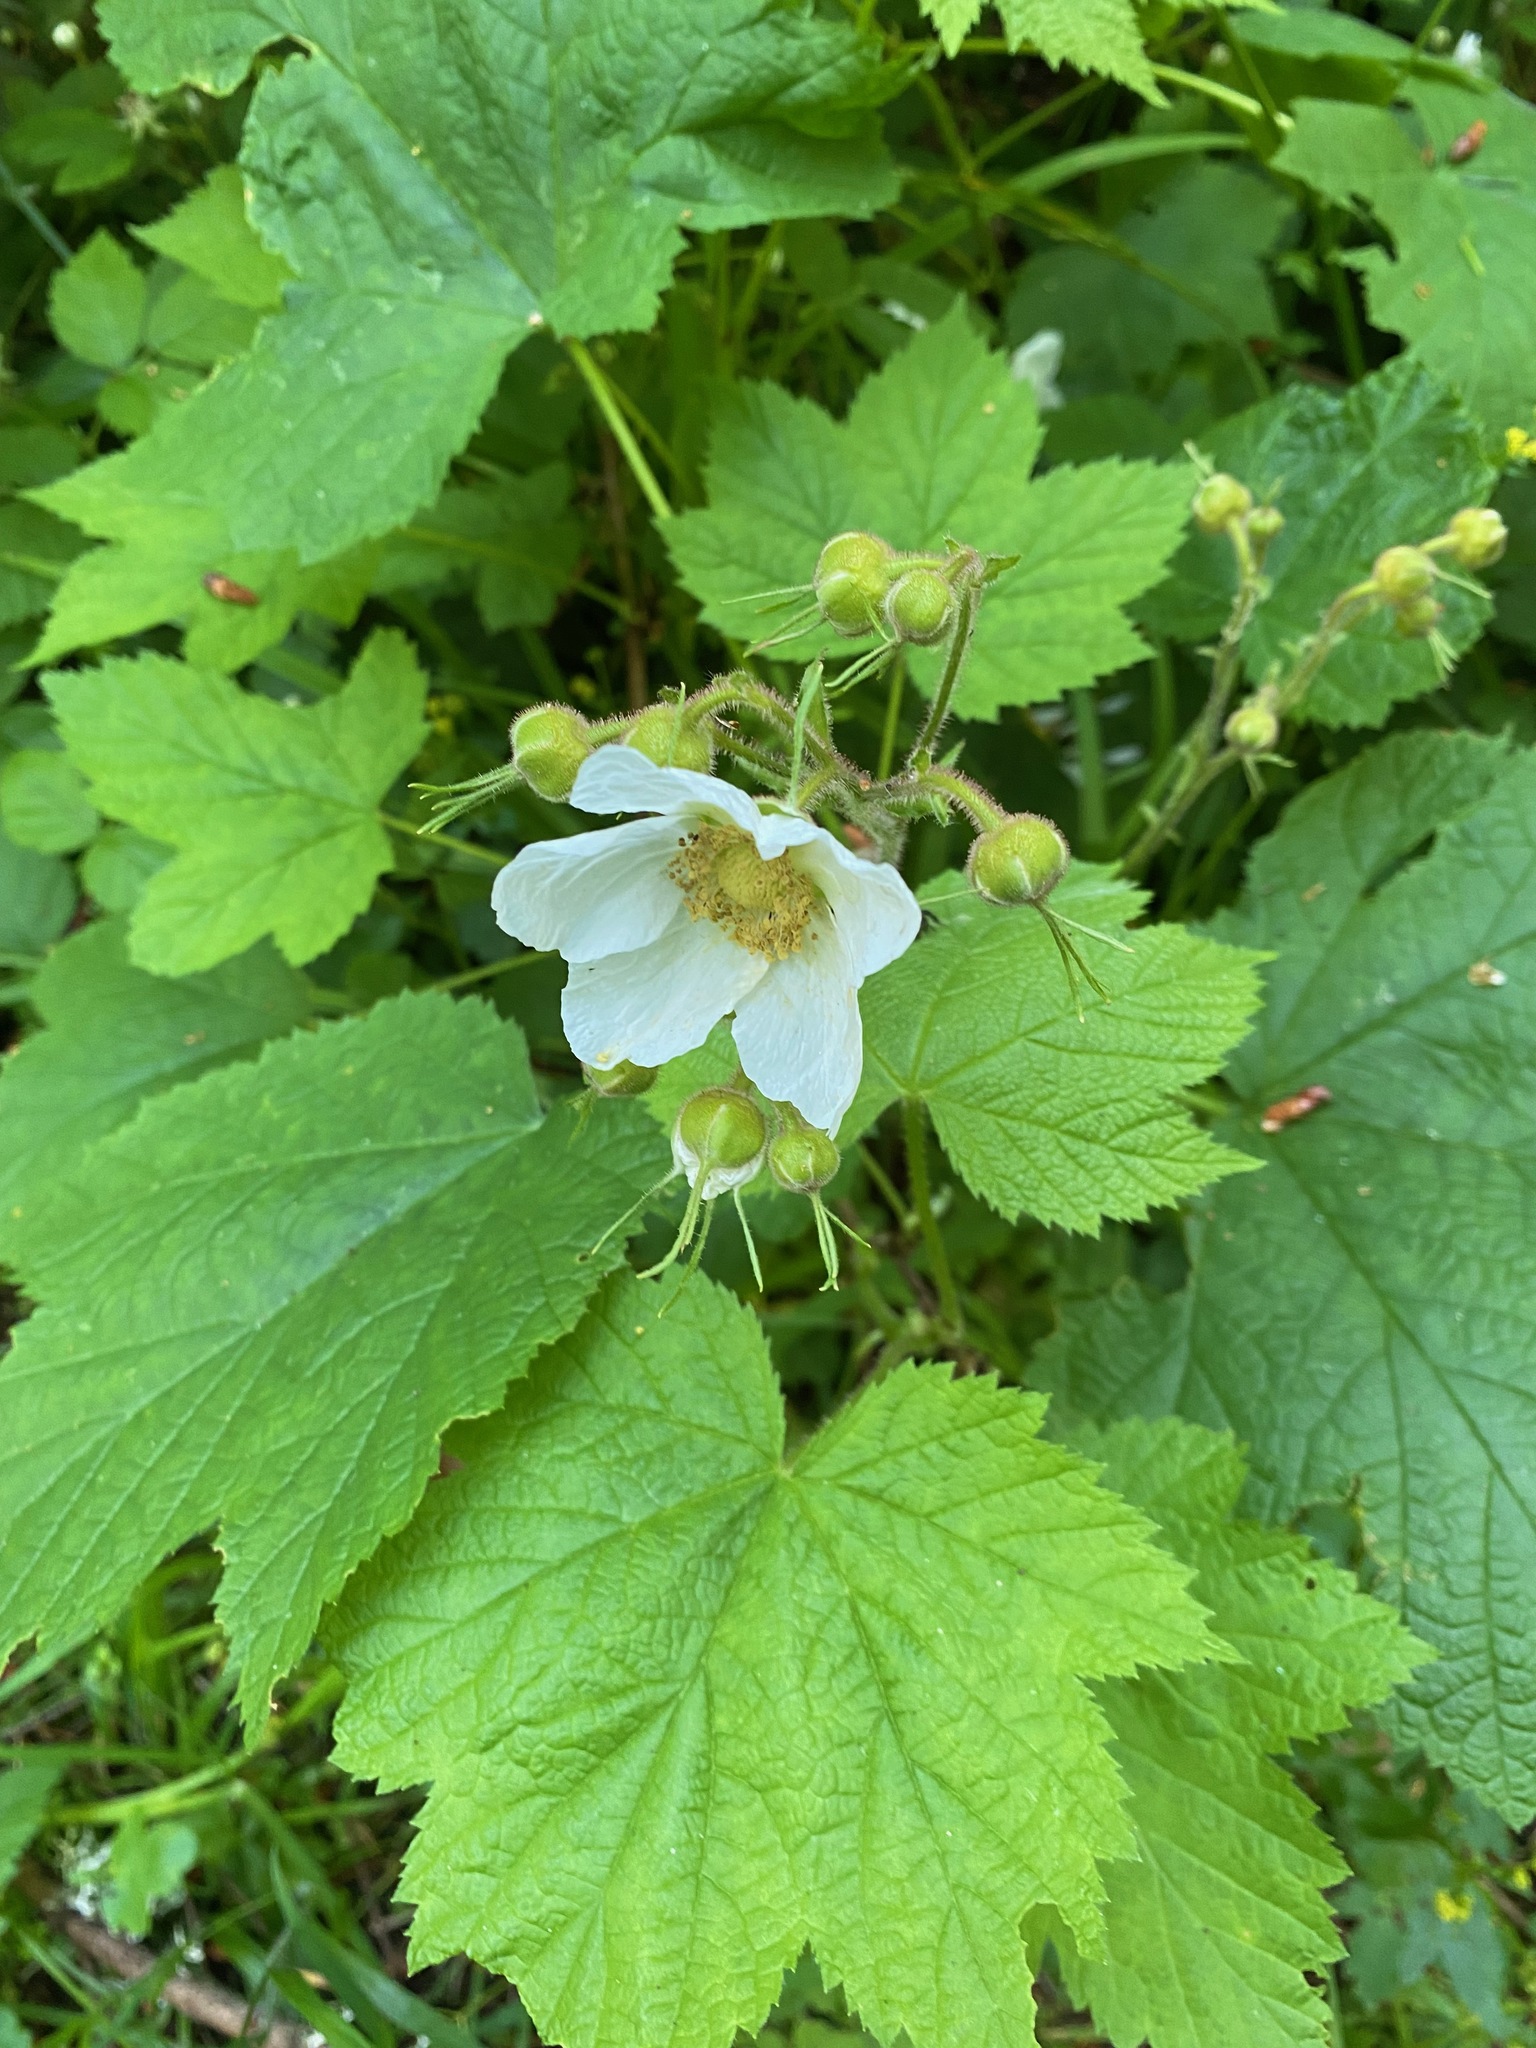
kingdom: Plantae
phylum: Tracheophyta
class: Magnoliopsida
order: Rosales
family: Rosaceae
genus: Rubus
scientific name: Rubus parviflorus
